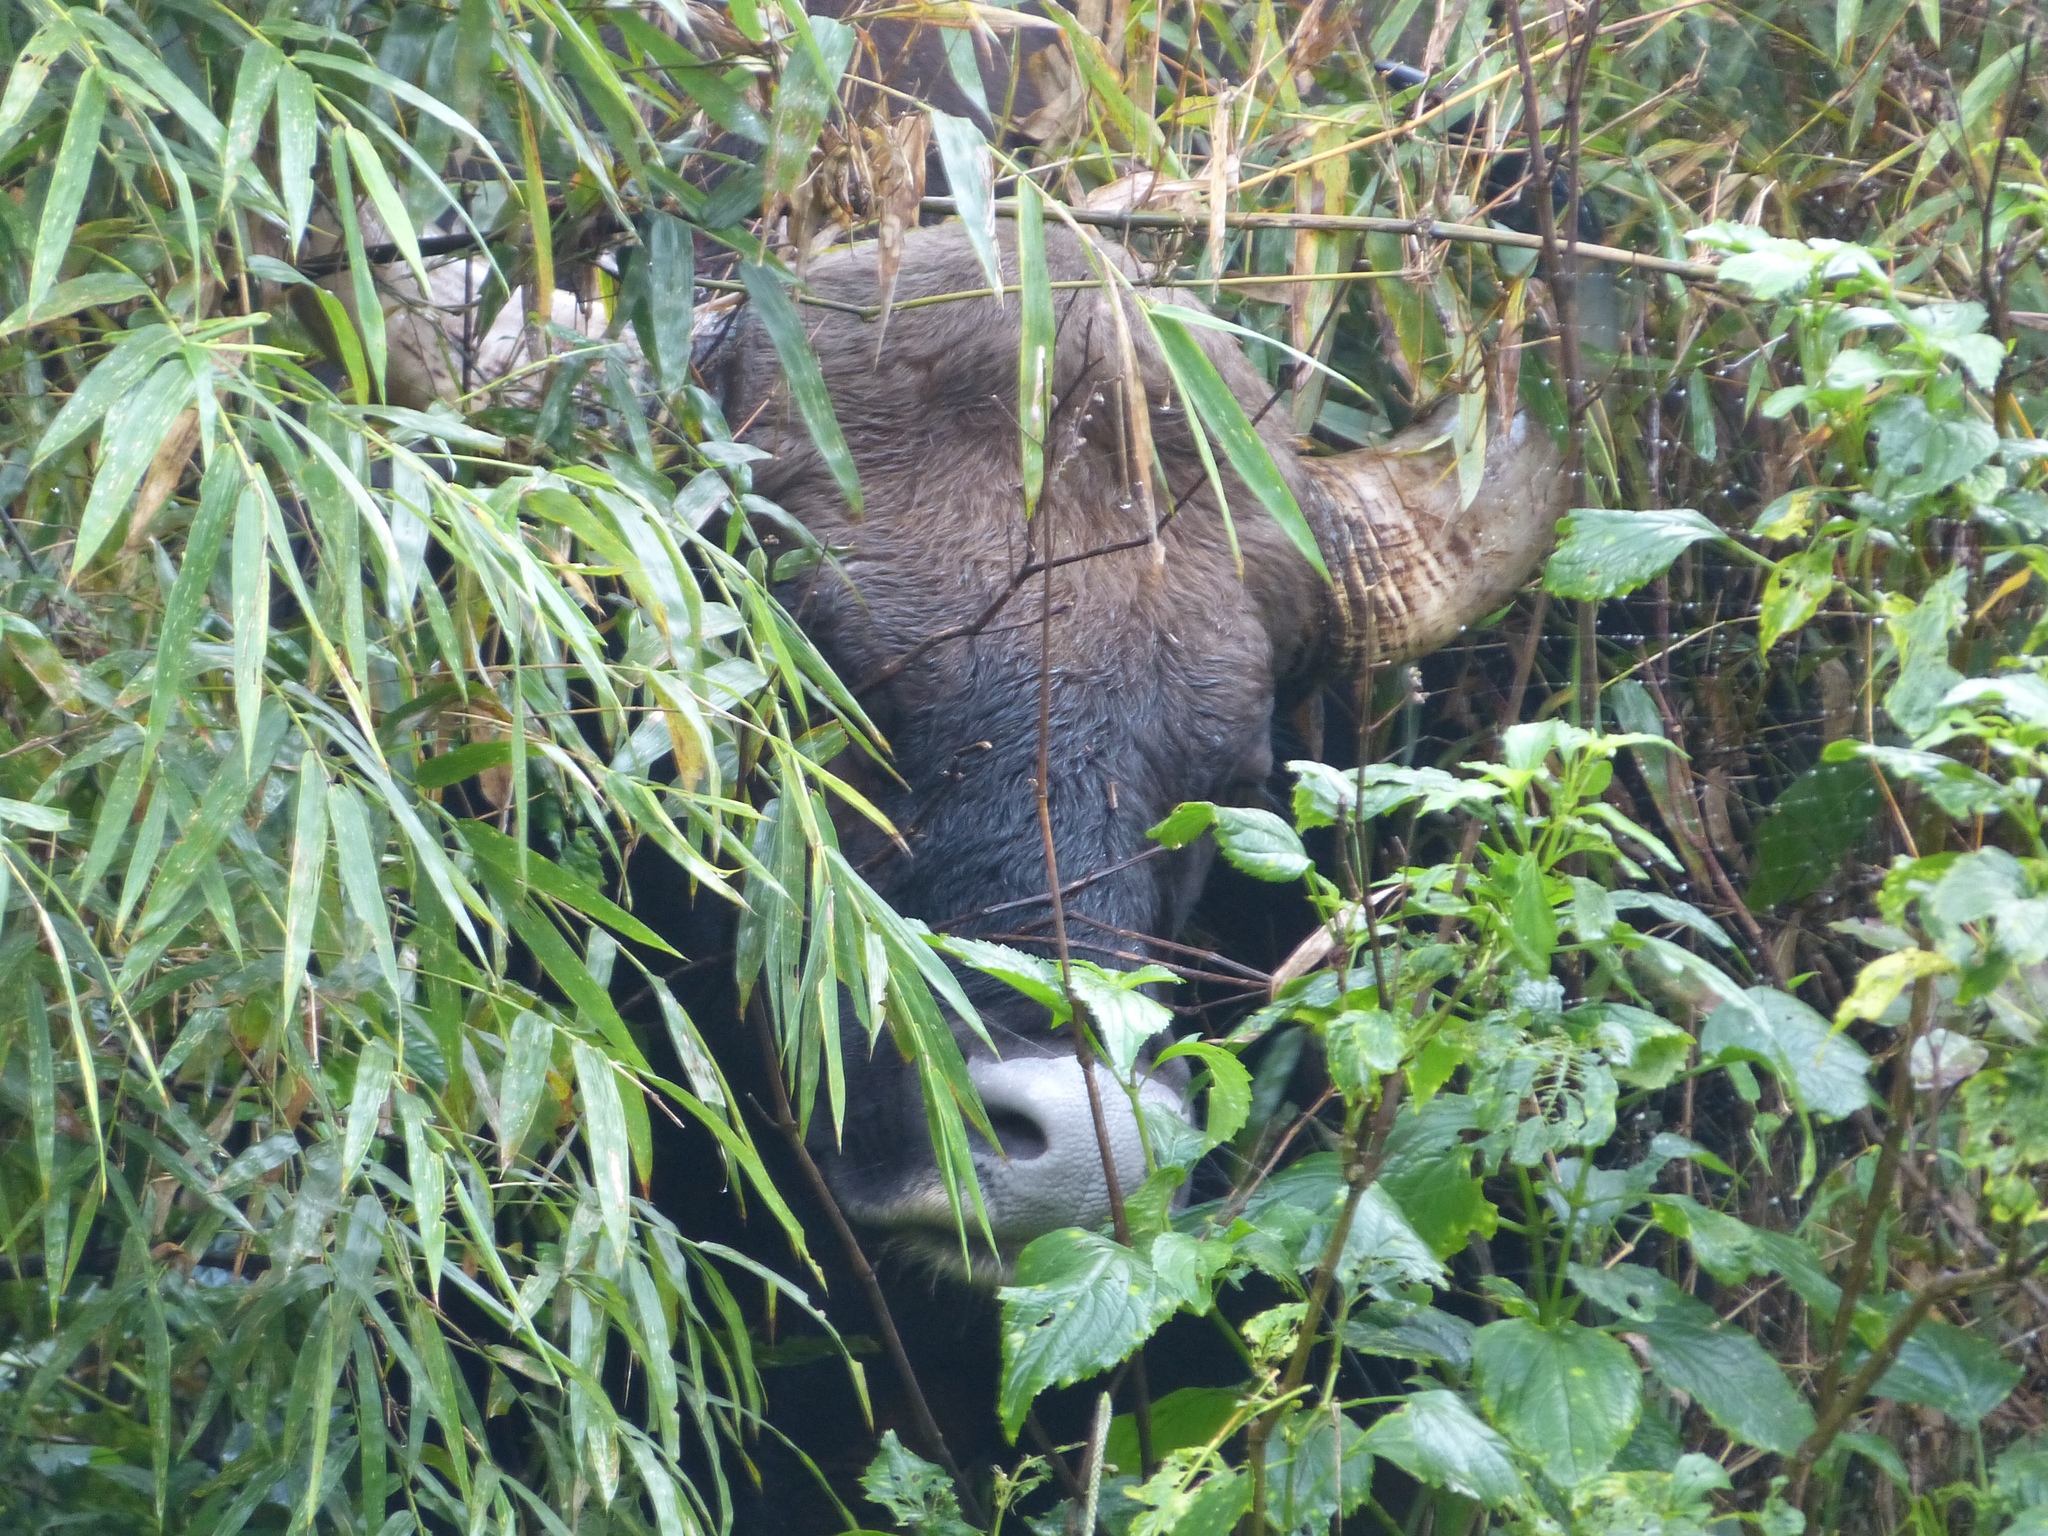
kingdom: Animalia
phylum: Chordata
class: Mammalia
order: Artiodactyla
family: Bovidae
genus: Bos
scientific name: Bos frontalis
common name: Gaur
